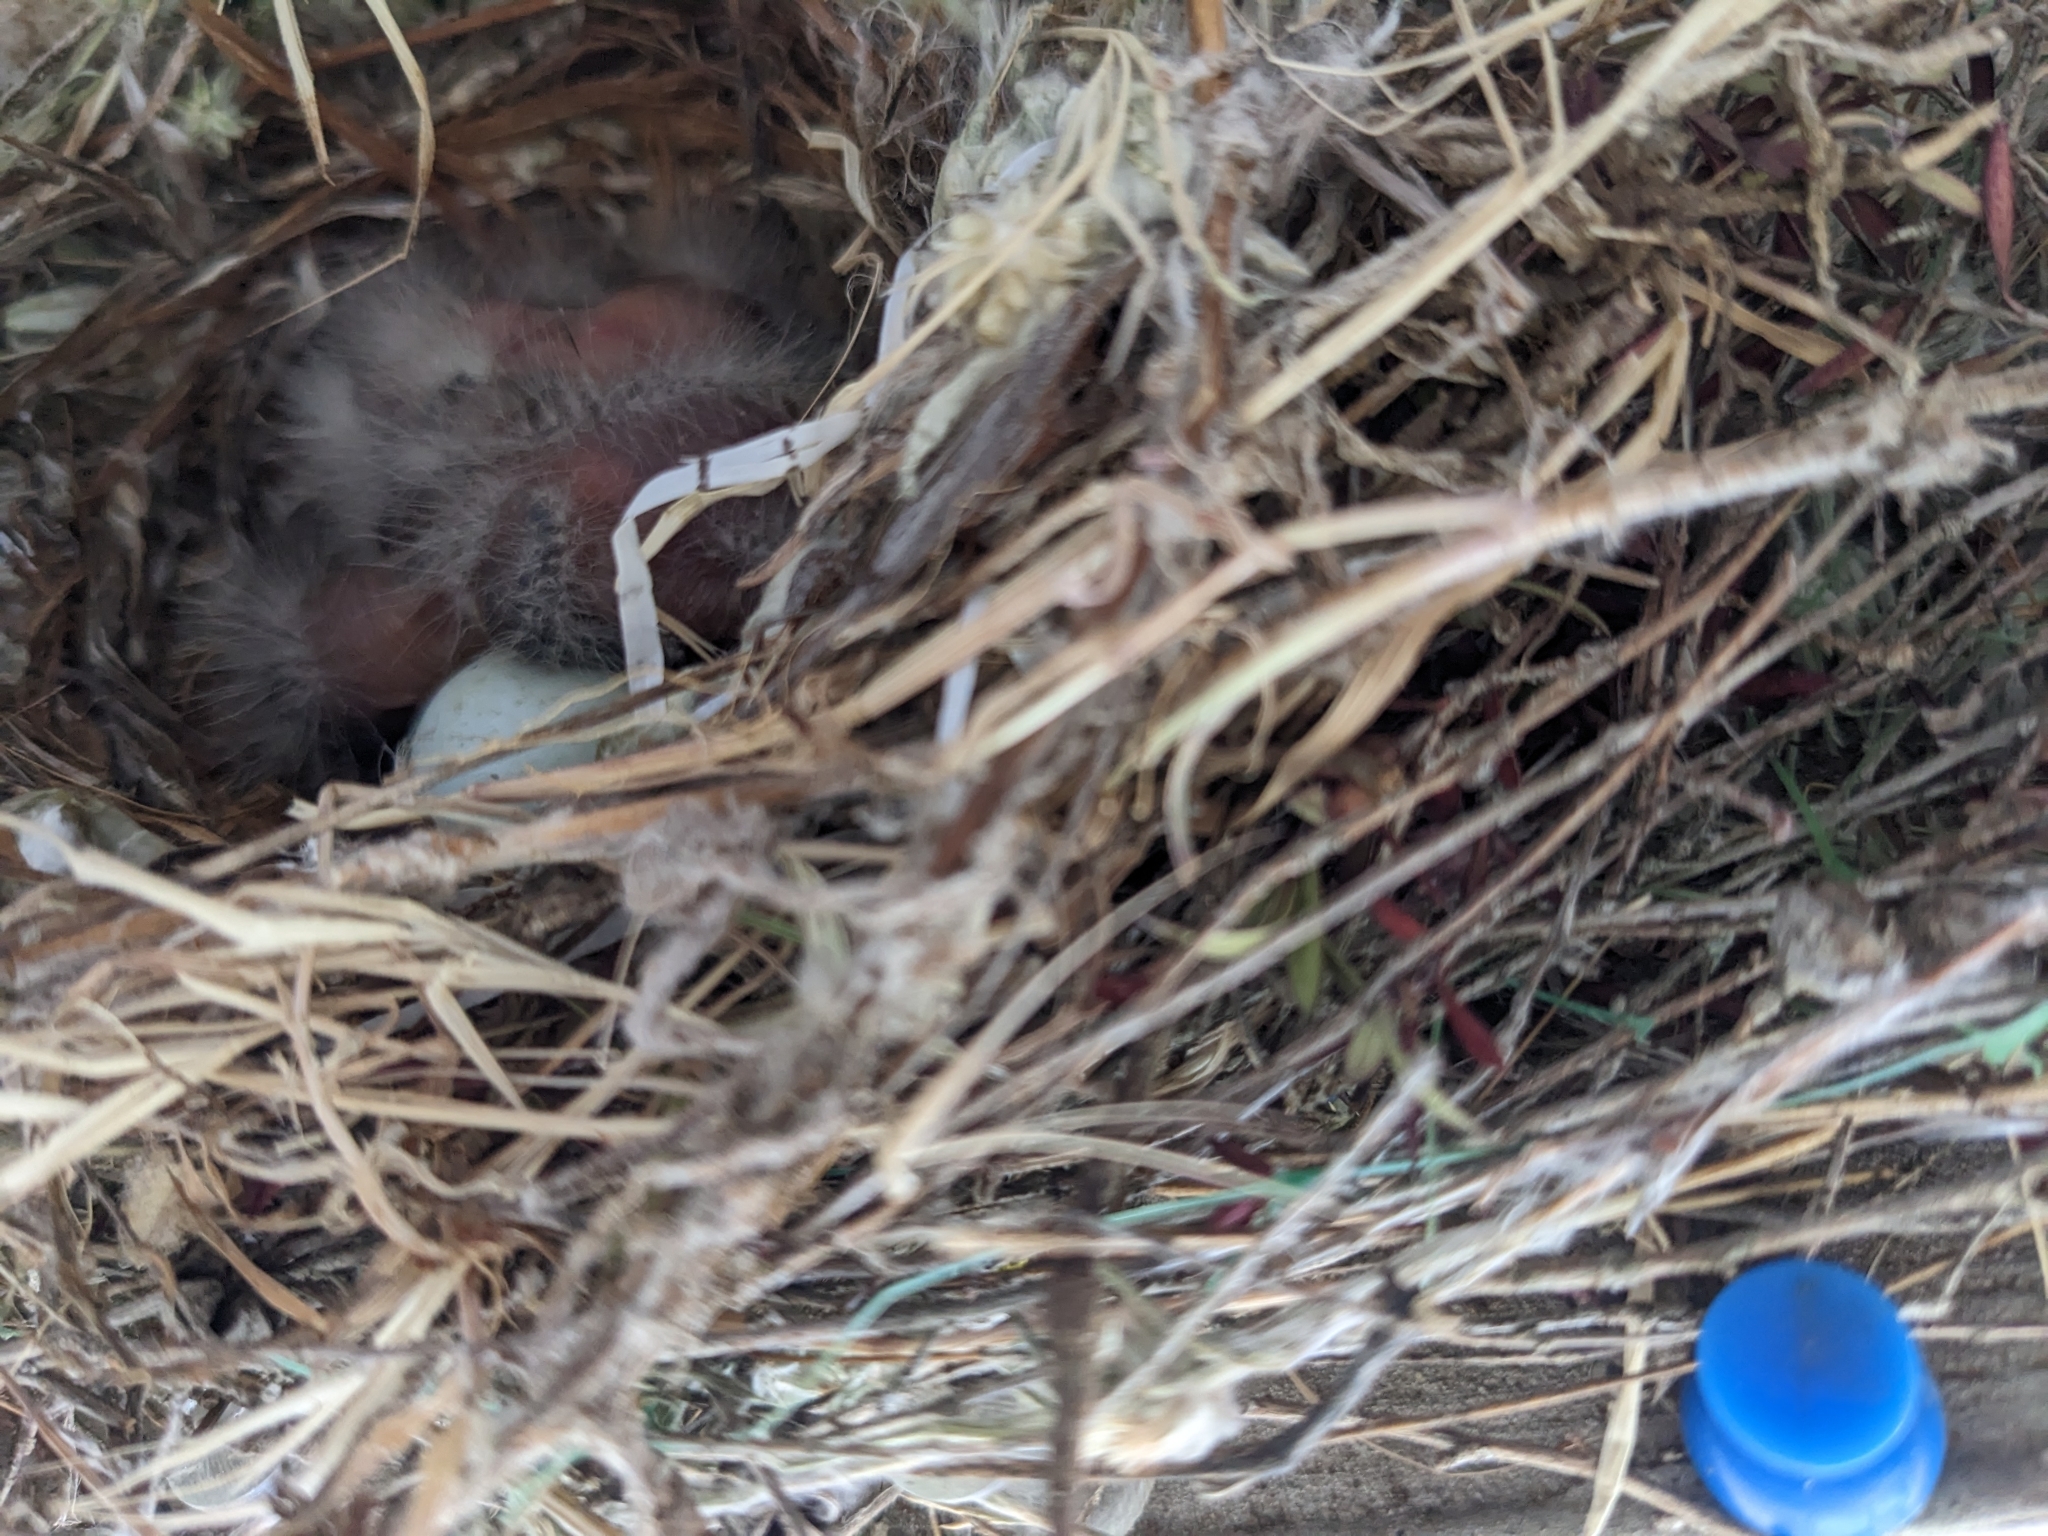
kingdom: Animalia
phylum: Chordata
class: Aves
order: Passeriformes
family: Fringillidae
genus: Haemorhous
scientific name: Haemorhous mexicanus
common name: House finch
